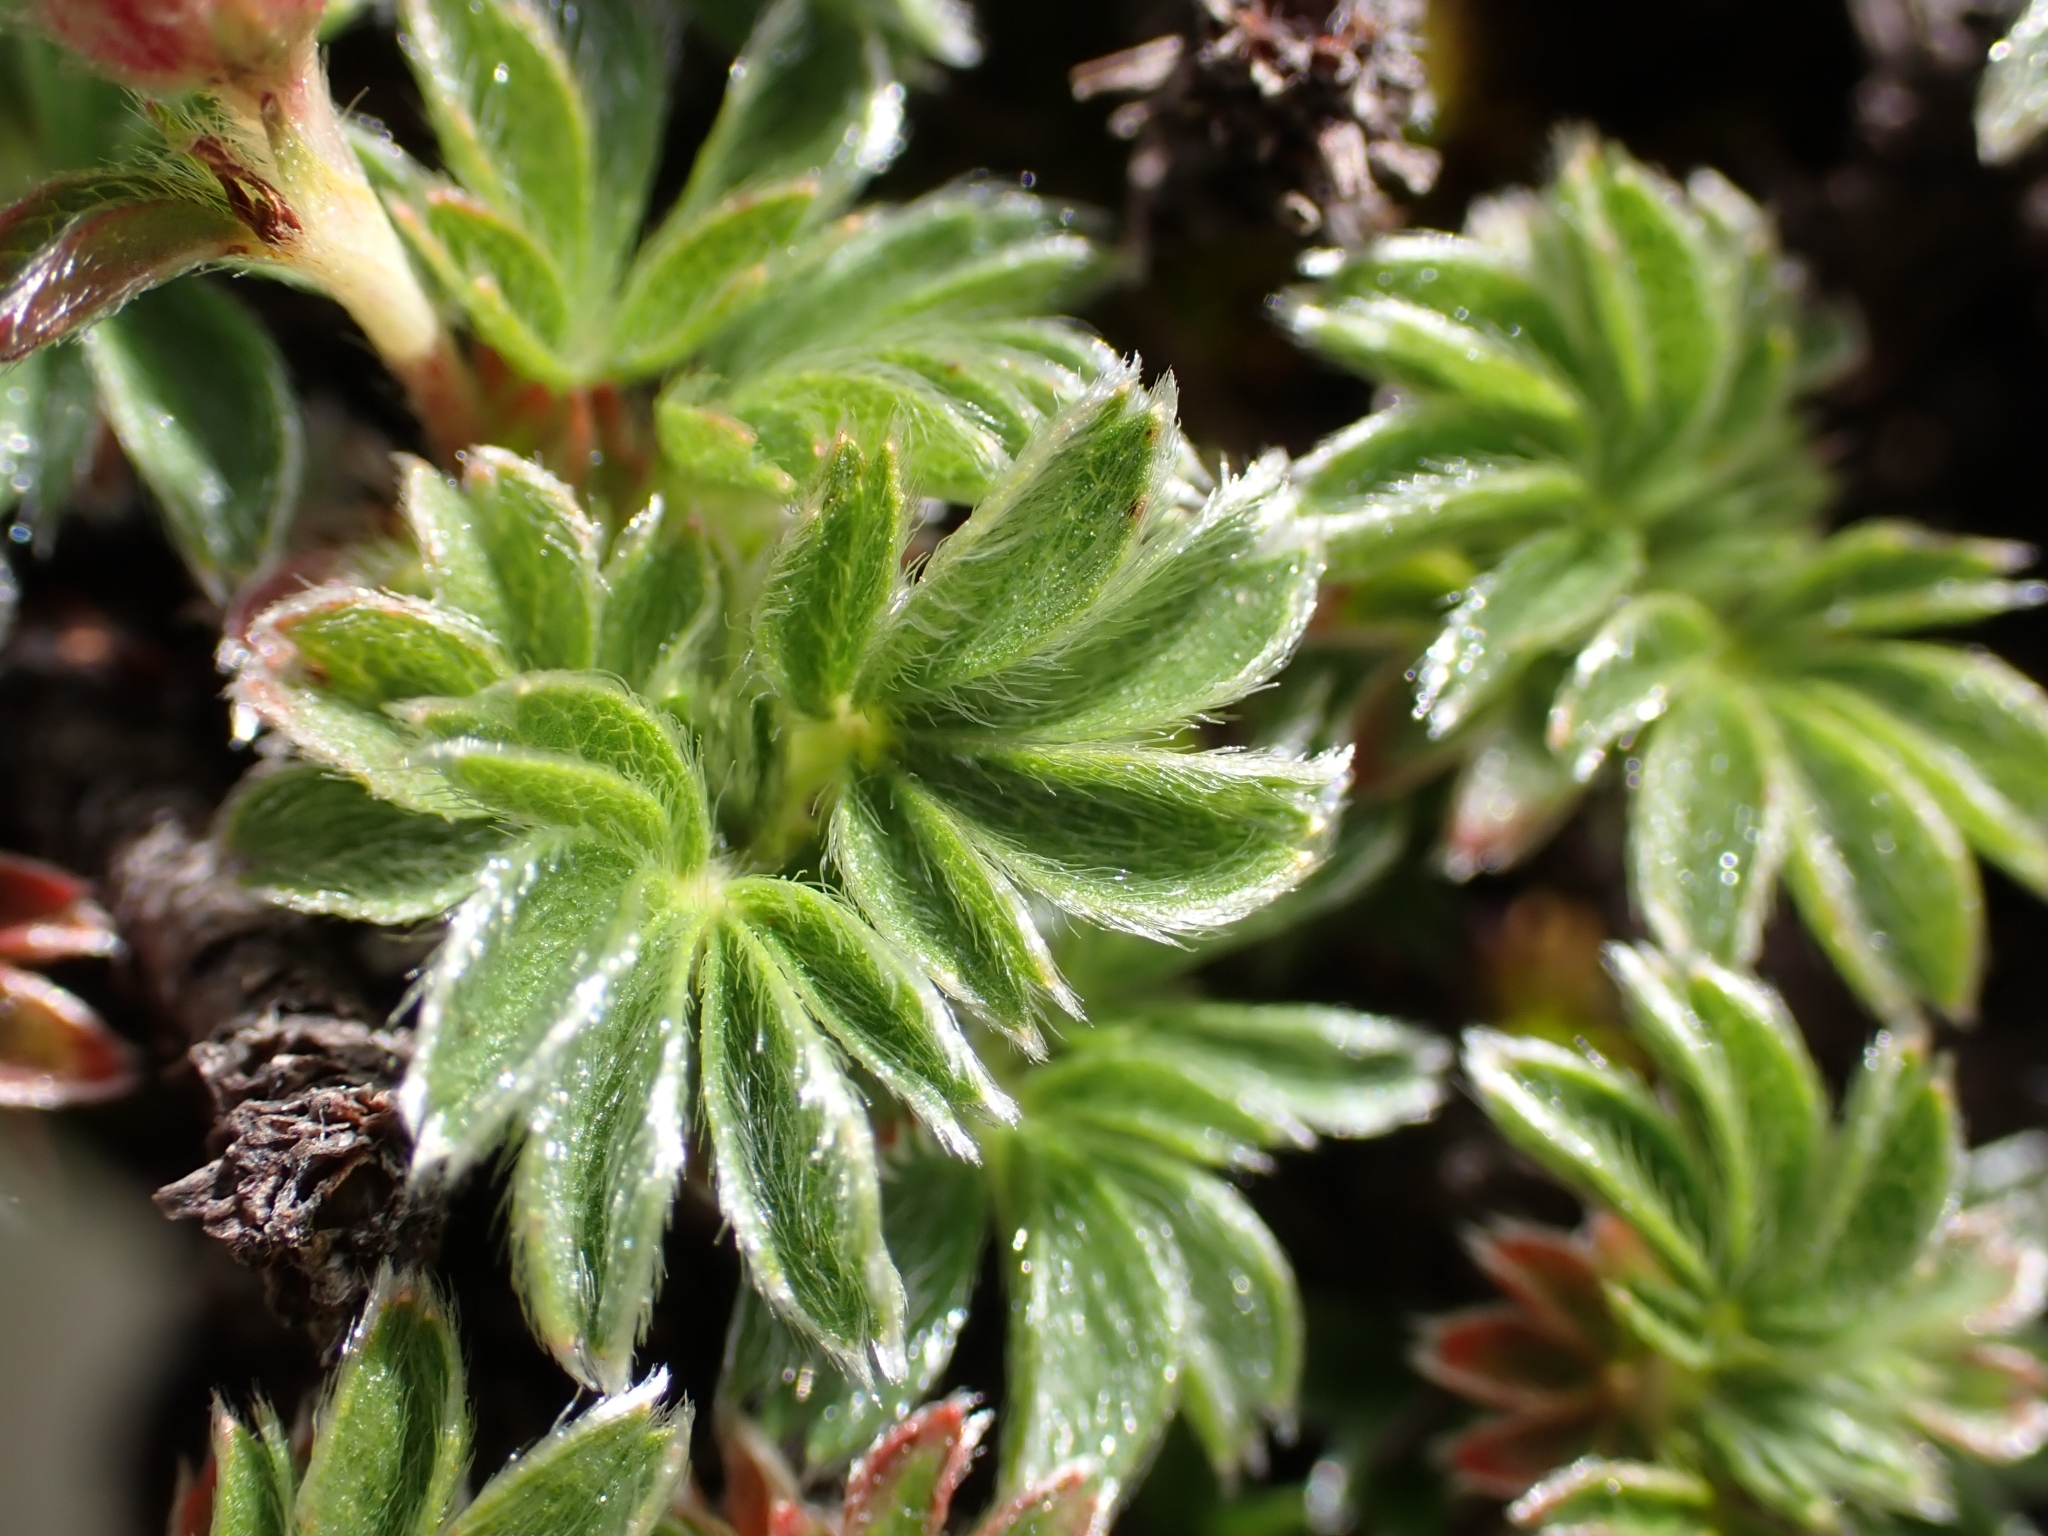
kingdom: Plantae
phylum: Tracheophyta
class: Magnoliopsida
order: Rosales
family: Rosaceae
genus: Potentilla
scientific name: Potentilla clusiana
